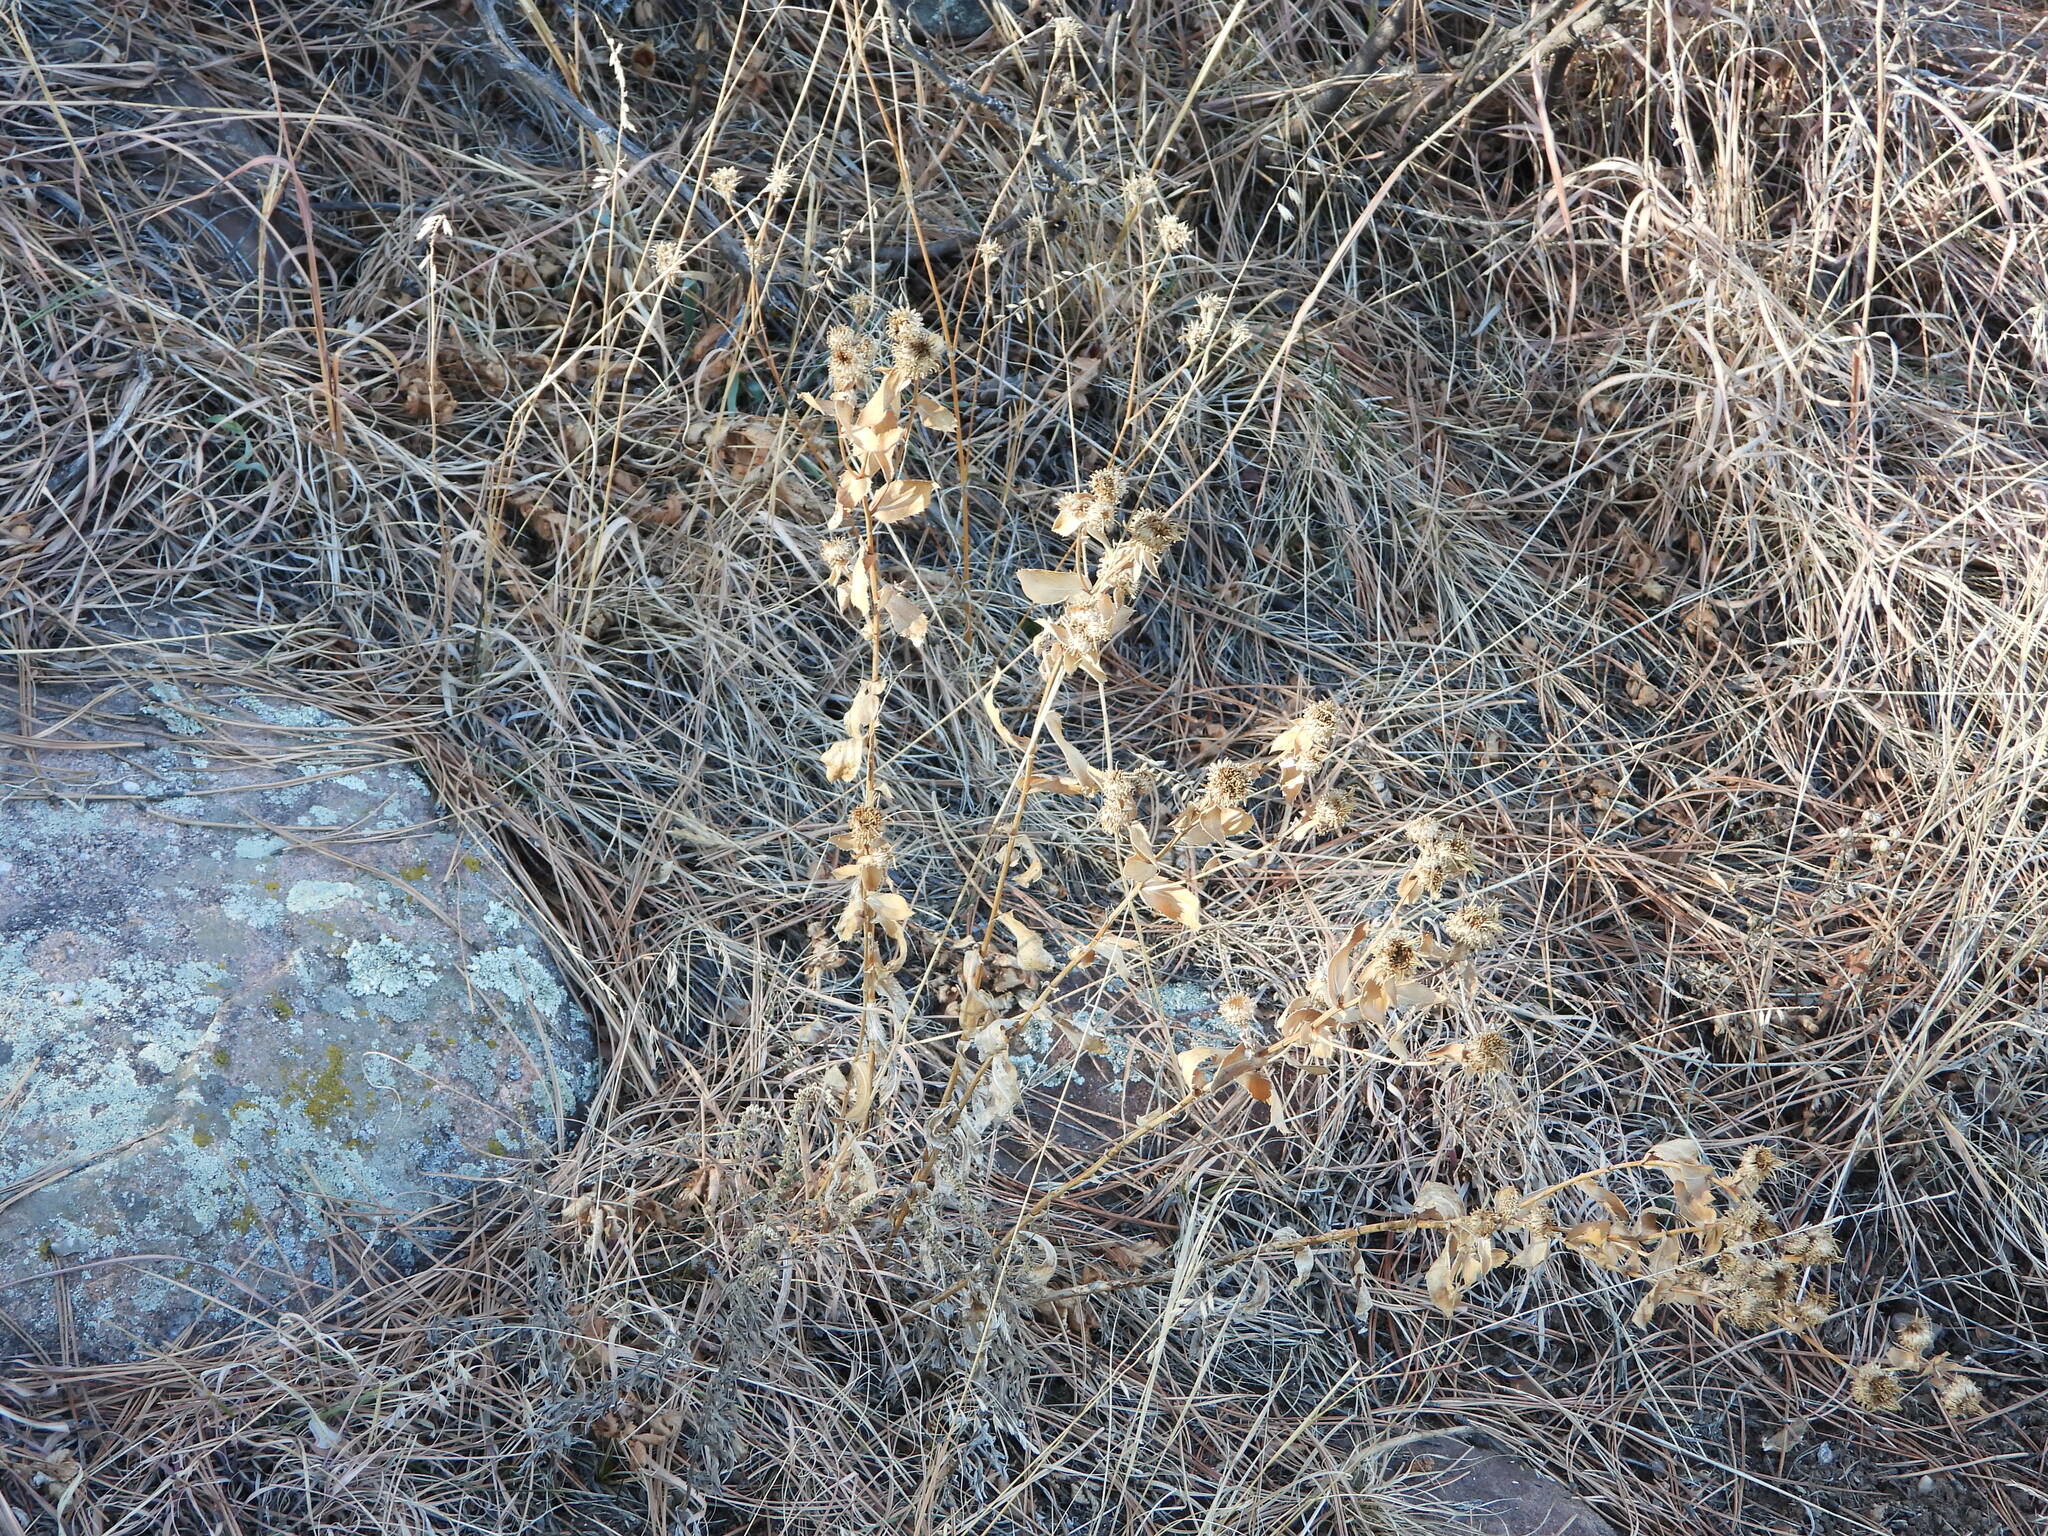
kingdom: Plantae
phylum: Tracheophyta
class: Magnoliopsida
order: Asterales
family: Asteraceae
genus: Grindelia
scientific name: Grindelia squarrosa
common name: Curly-cup gumweed
